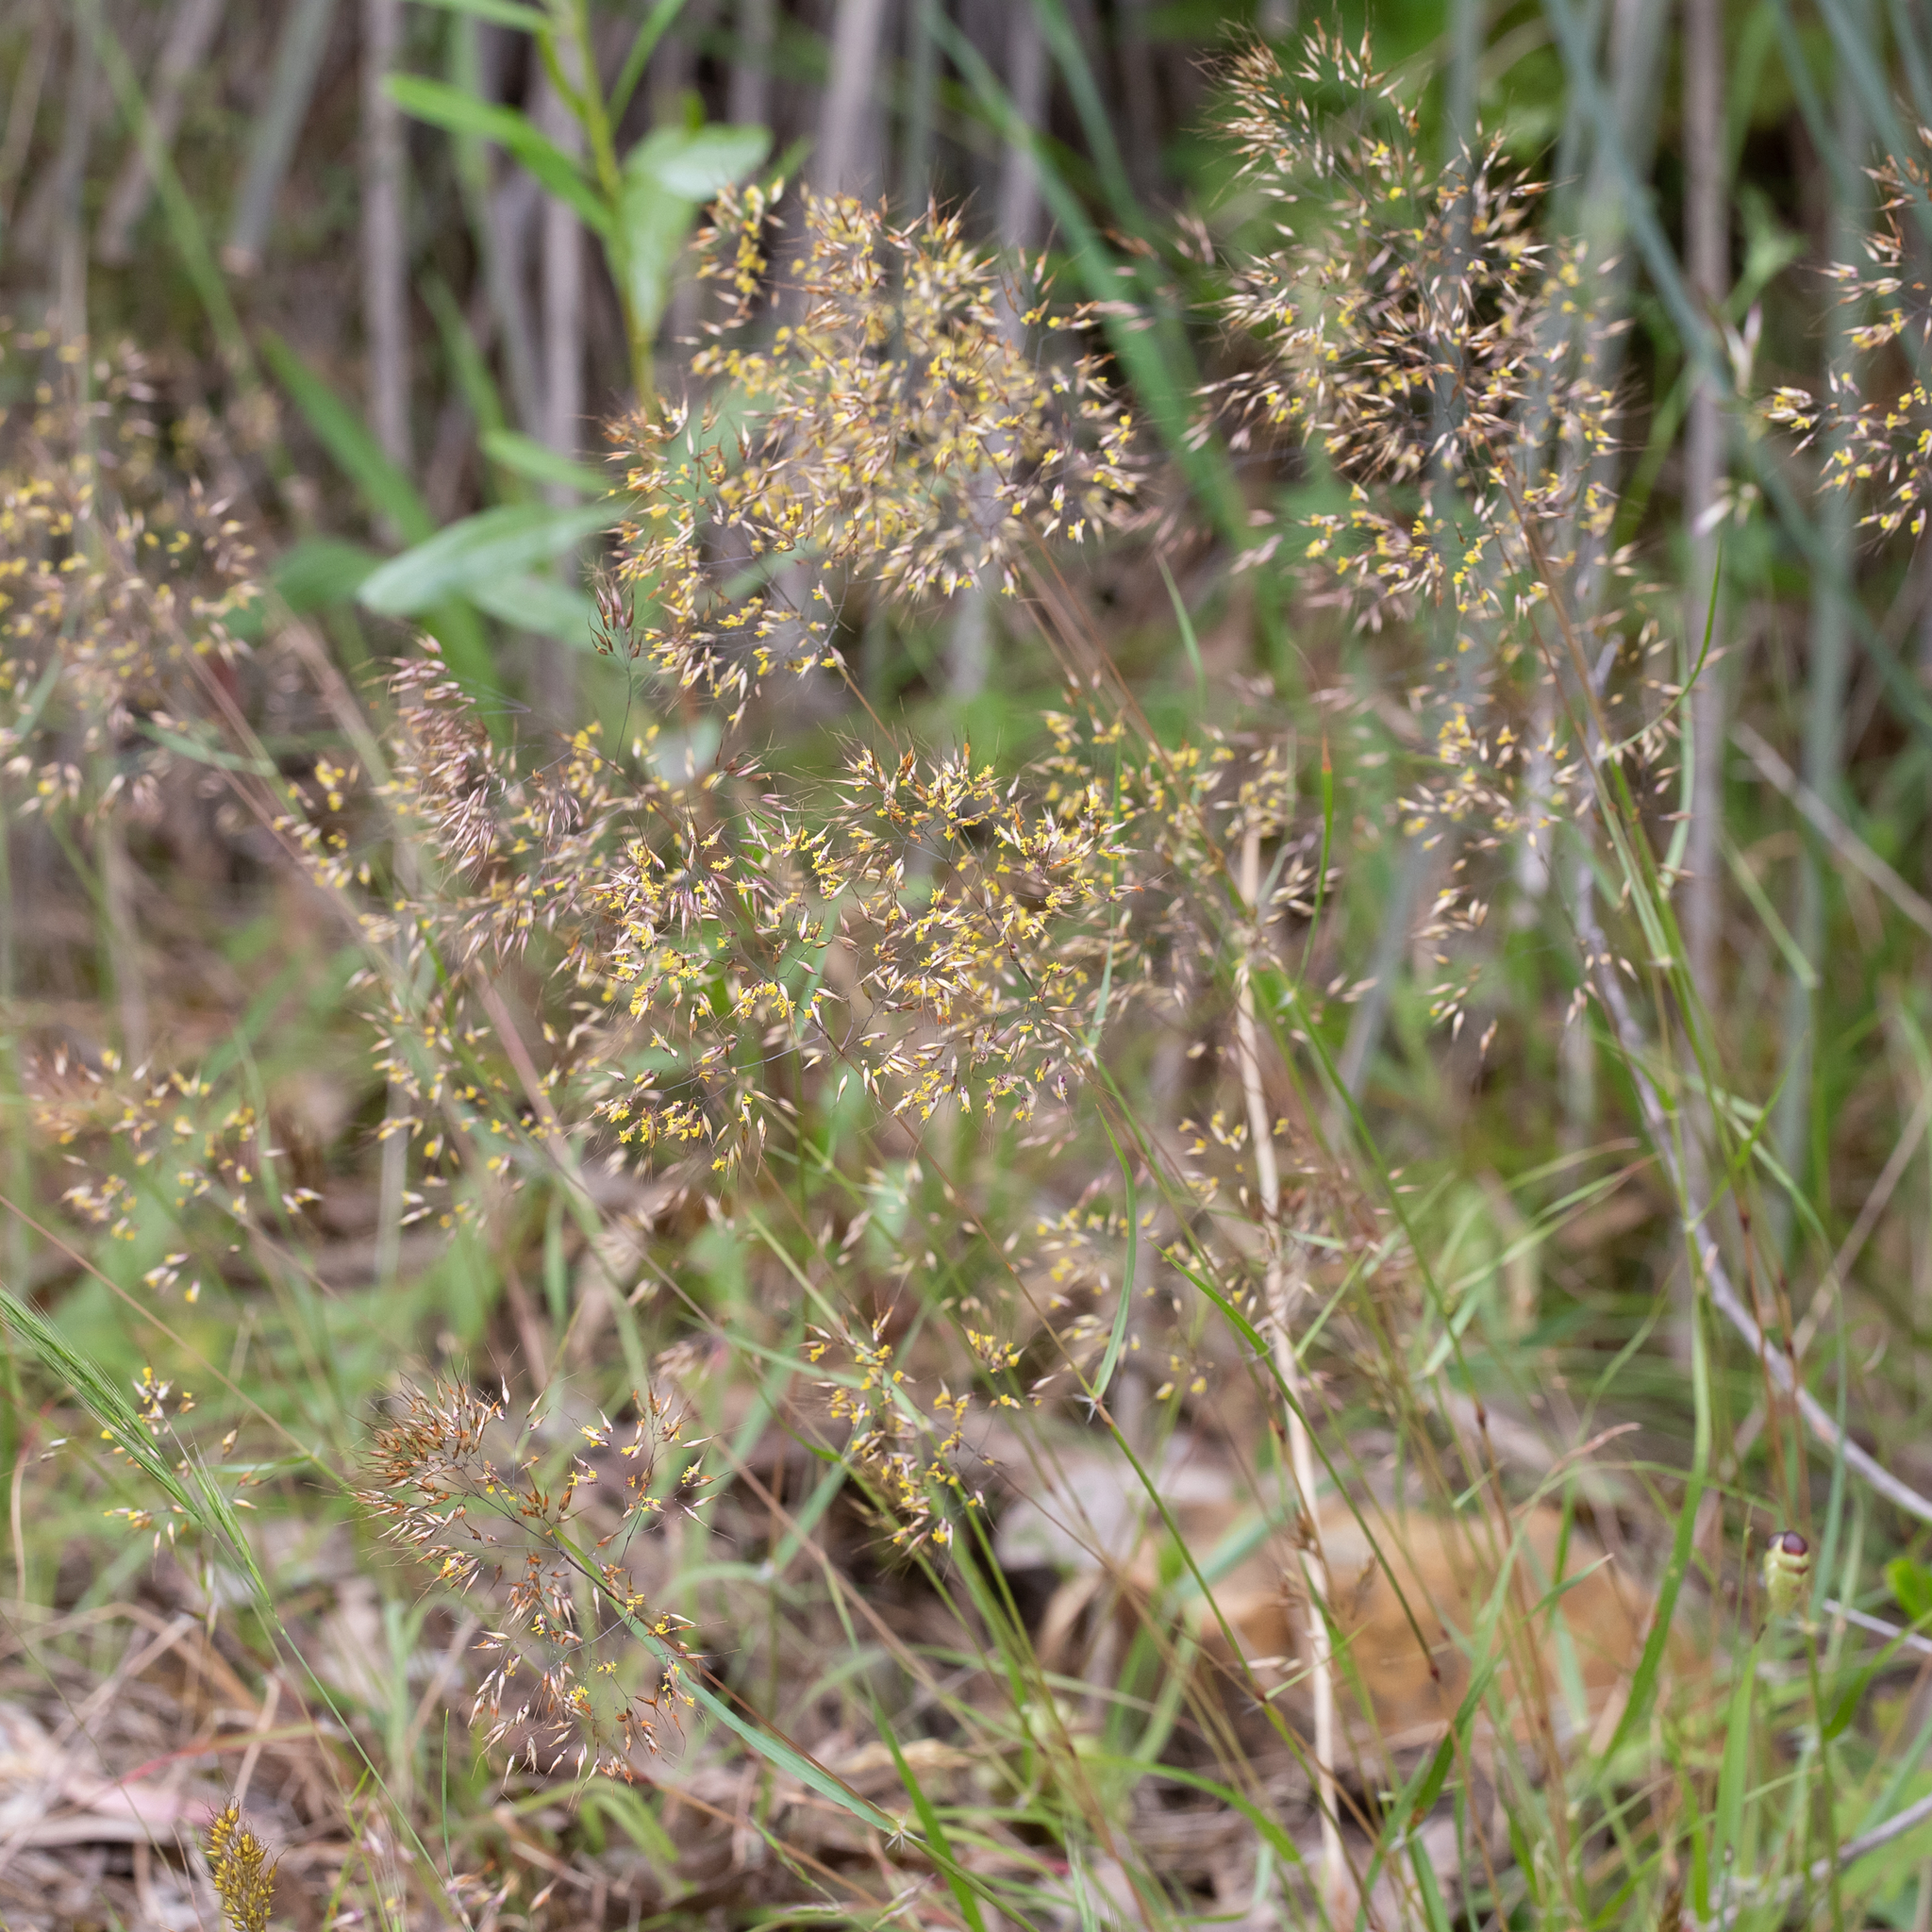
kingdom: Plantae
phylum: Tracheophyta
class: Liliopsida
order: Poales
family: Poaceae
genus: Pentameris
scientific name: Pentameris pallida
